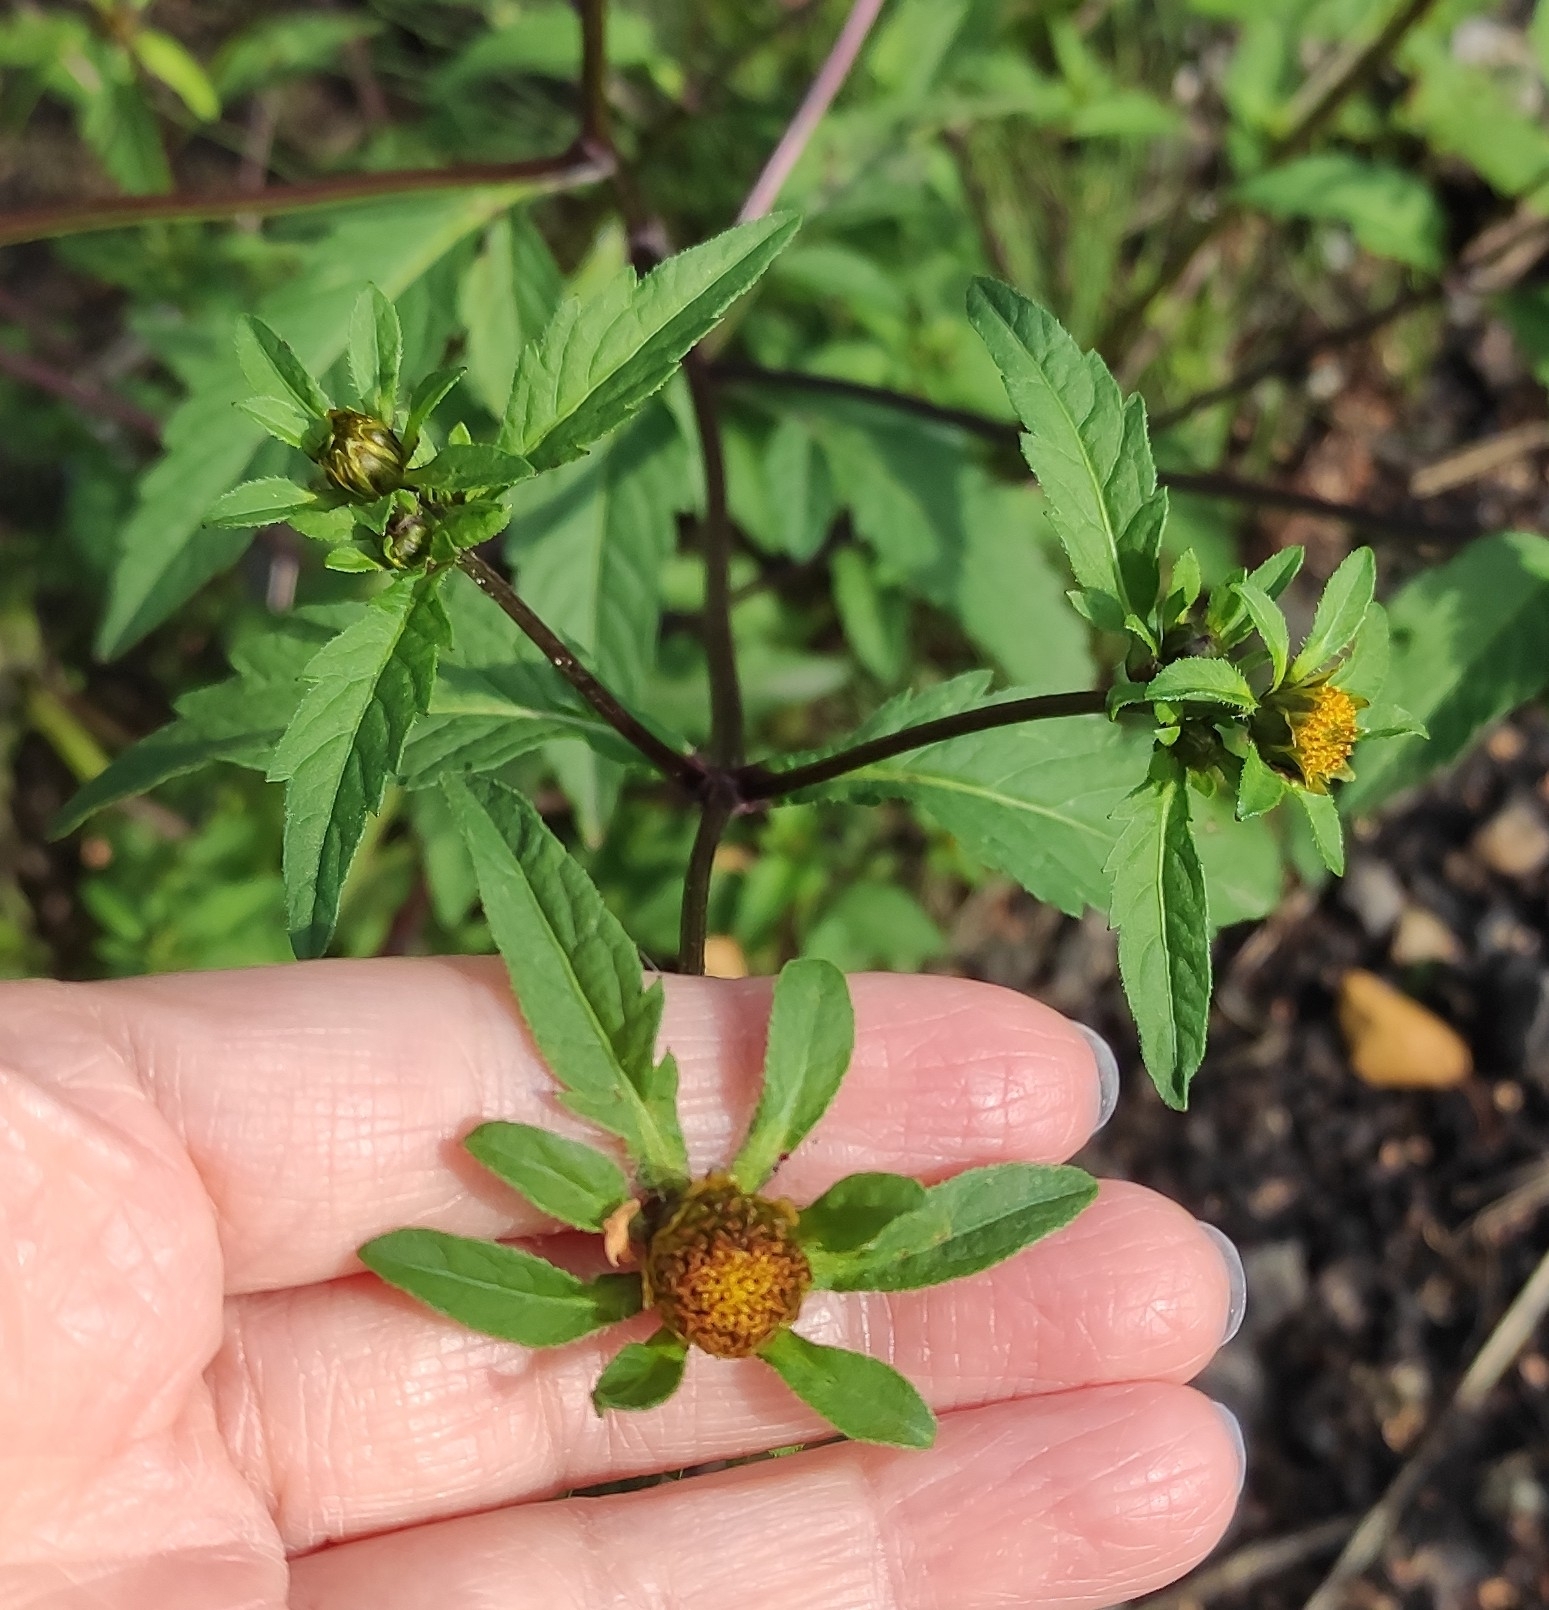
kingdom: Plantae
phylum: Tracheophyta
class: Magnoliopsida
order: Asterales
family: Asteraceae
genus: Bidens
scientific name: Bidens tripartita
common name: Trifid bur-marigold
